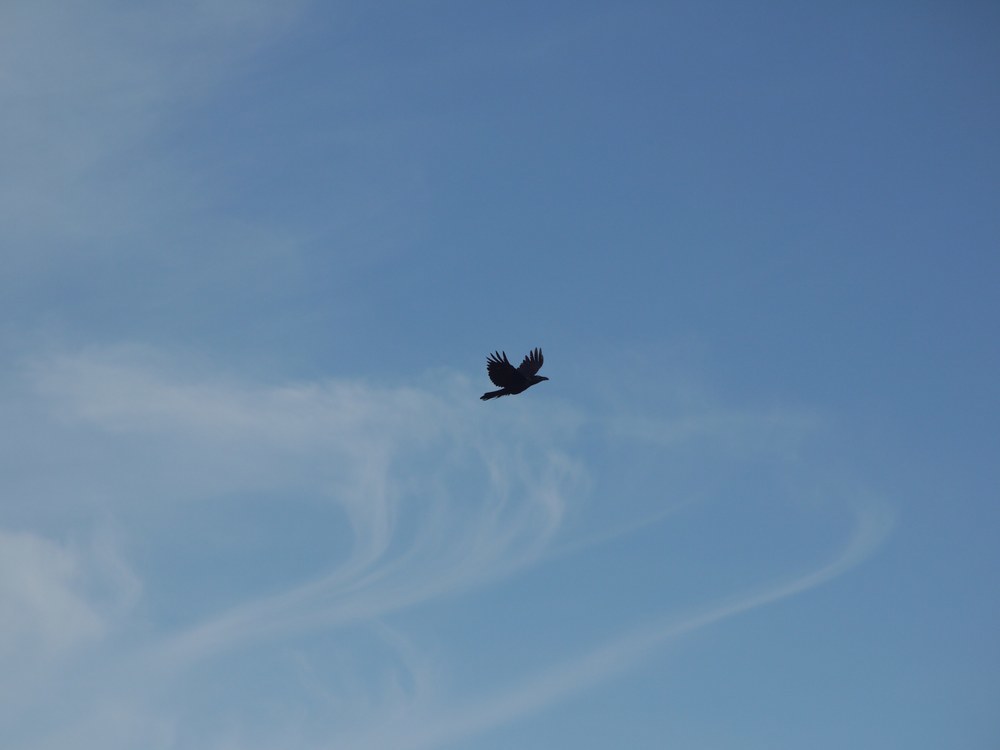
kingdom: Animalia
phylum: Chordata
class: Aves
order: Passeriformes
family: Corvidae
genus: Corvus
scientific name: Corvus corax
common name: Common raven
